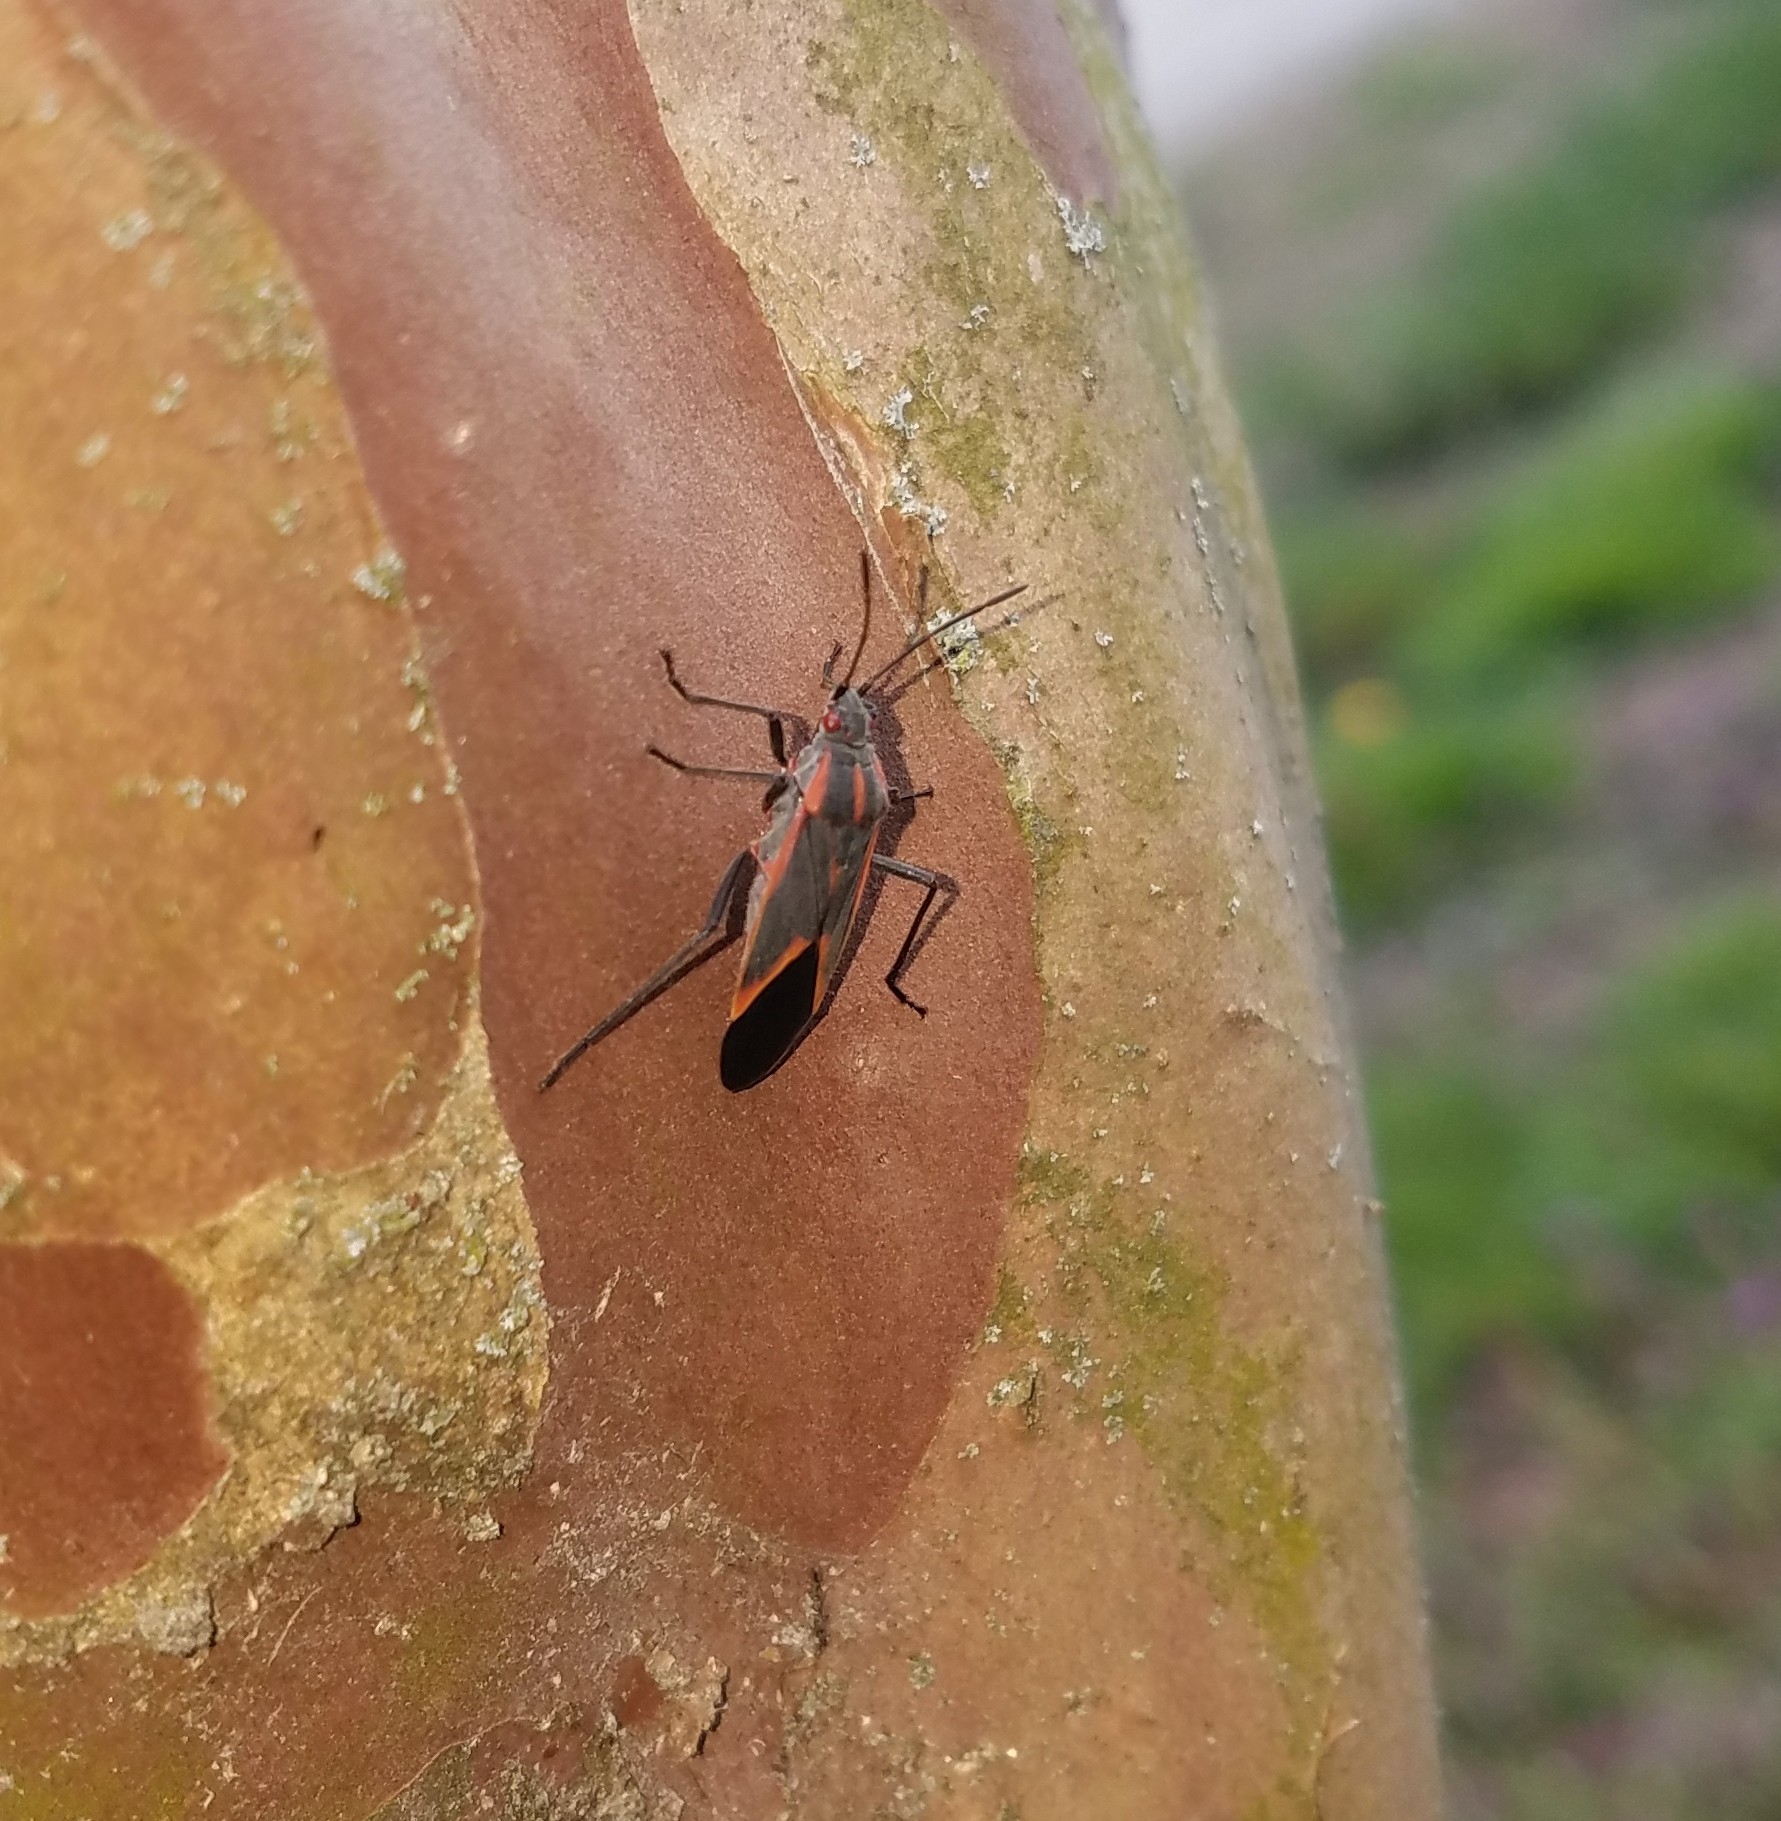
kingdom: Animalia
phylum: Arthropoda
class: Insecta
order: Hemiptera
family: Rhopalidae
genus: Boisea
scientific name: Boisea trivittata
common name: Boxelder bug
